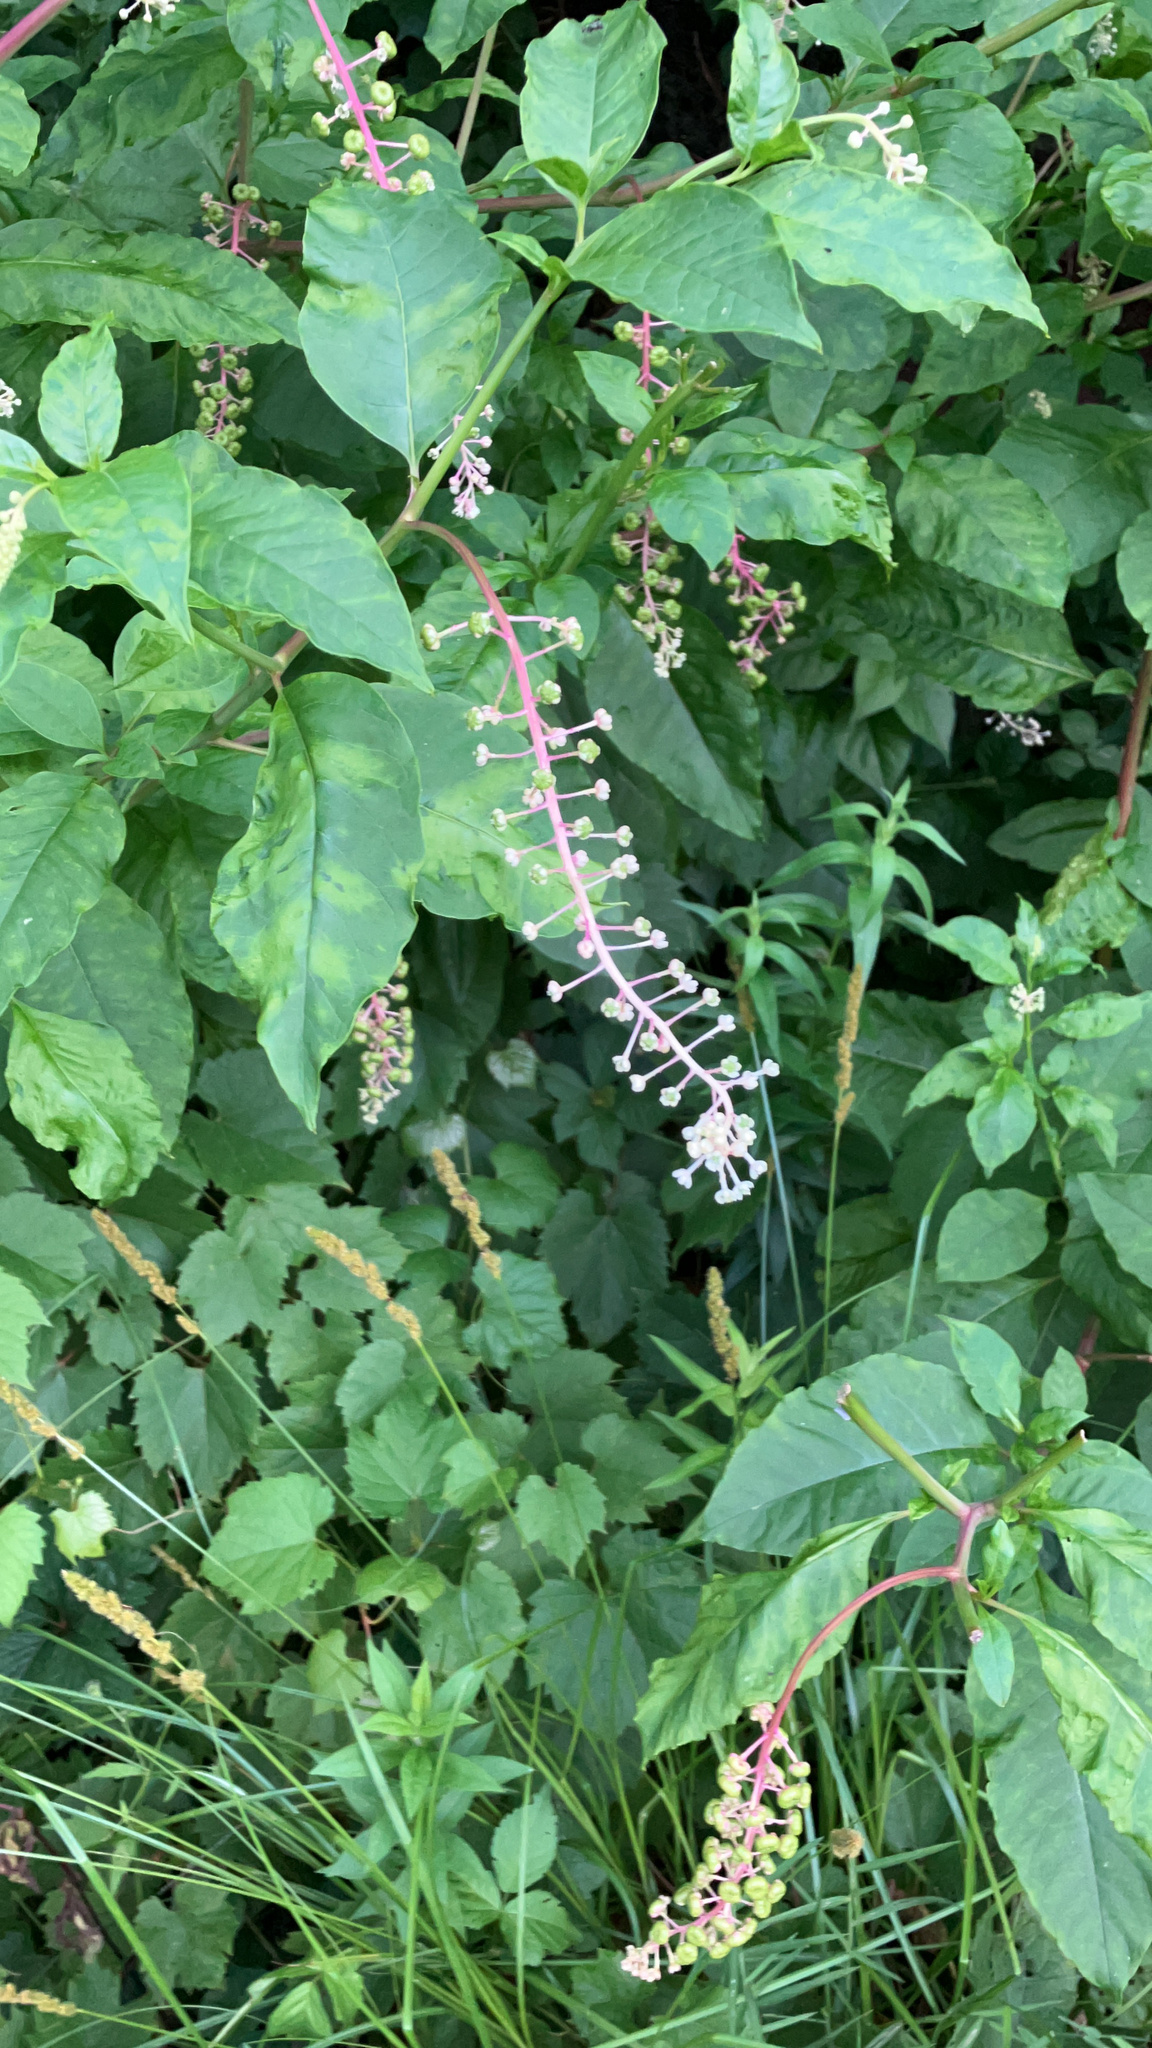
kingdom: Viruses
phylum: Pisuviricota
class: Stelpaviricetes
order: Patatavirales
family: Potyviridae
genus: Potyvirus
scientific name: Potyvirus Pokeweed mosaic virus
